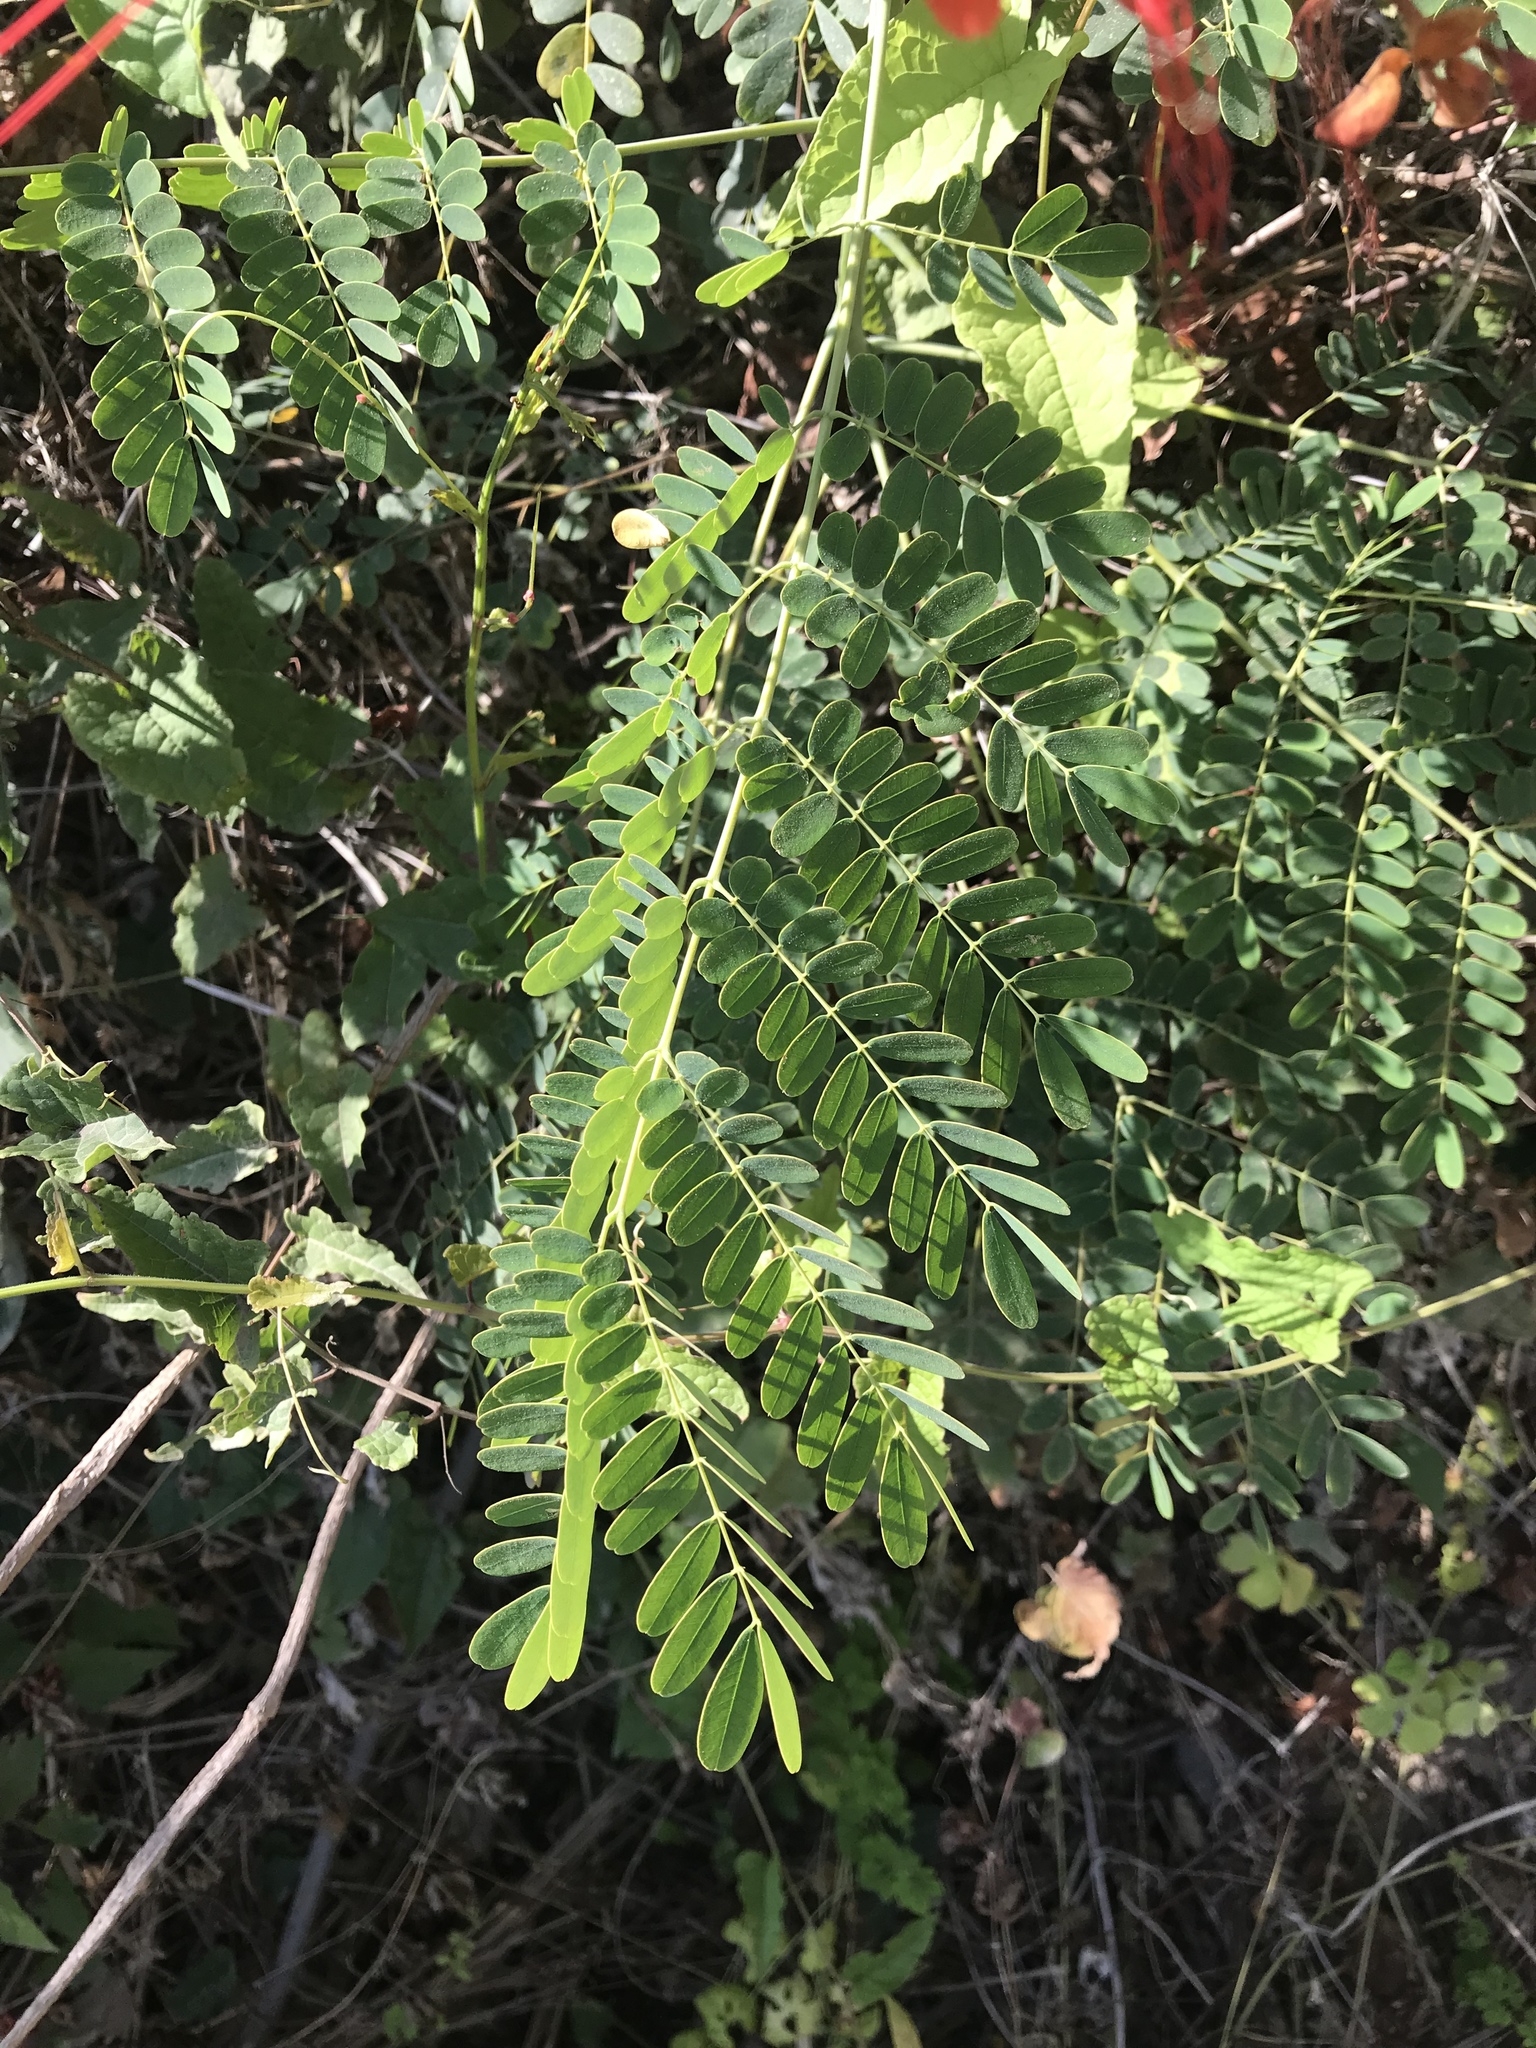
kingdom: Plantae
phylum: Tracheophyta
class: Magnoliopsida
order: Fabales
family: Fabaceae
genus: Caesalpinia
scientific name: Caesalpinia pulcherrima
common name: Pride-of-barbados
